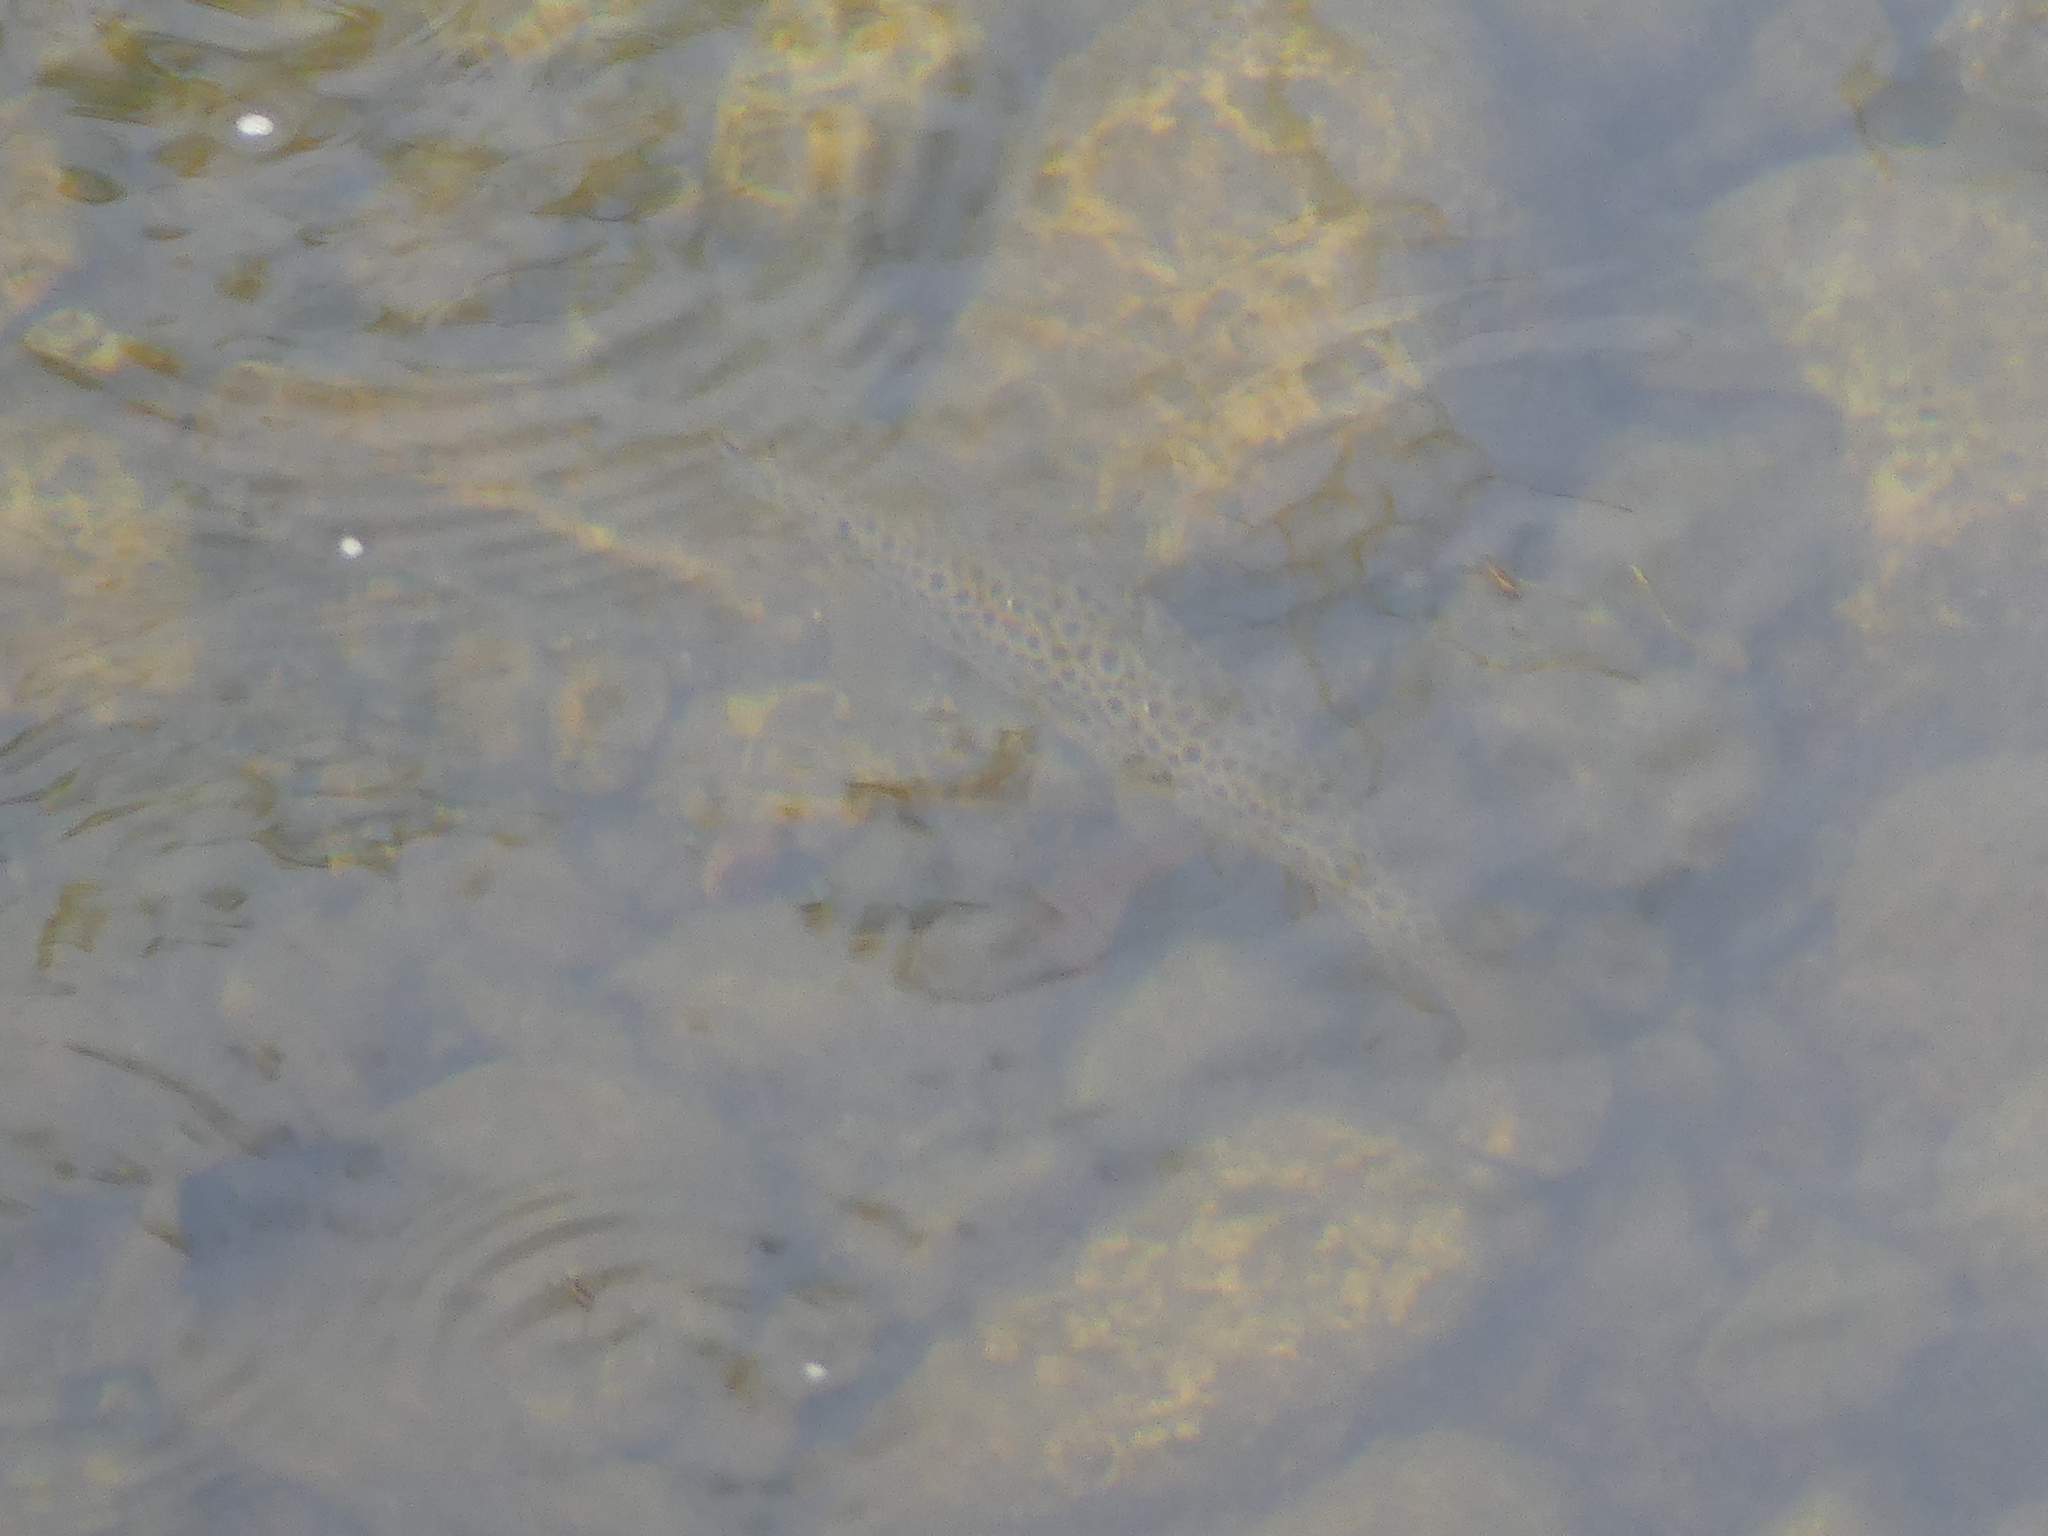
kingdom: Animalia
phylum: Chordata
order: Salmoniformes
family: Salmonidae
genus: Salmo
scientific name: Salmo trutta
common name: Brown trout
